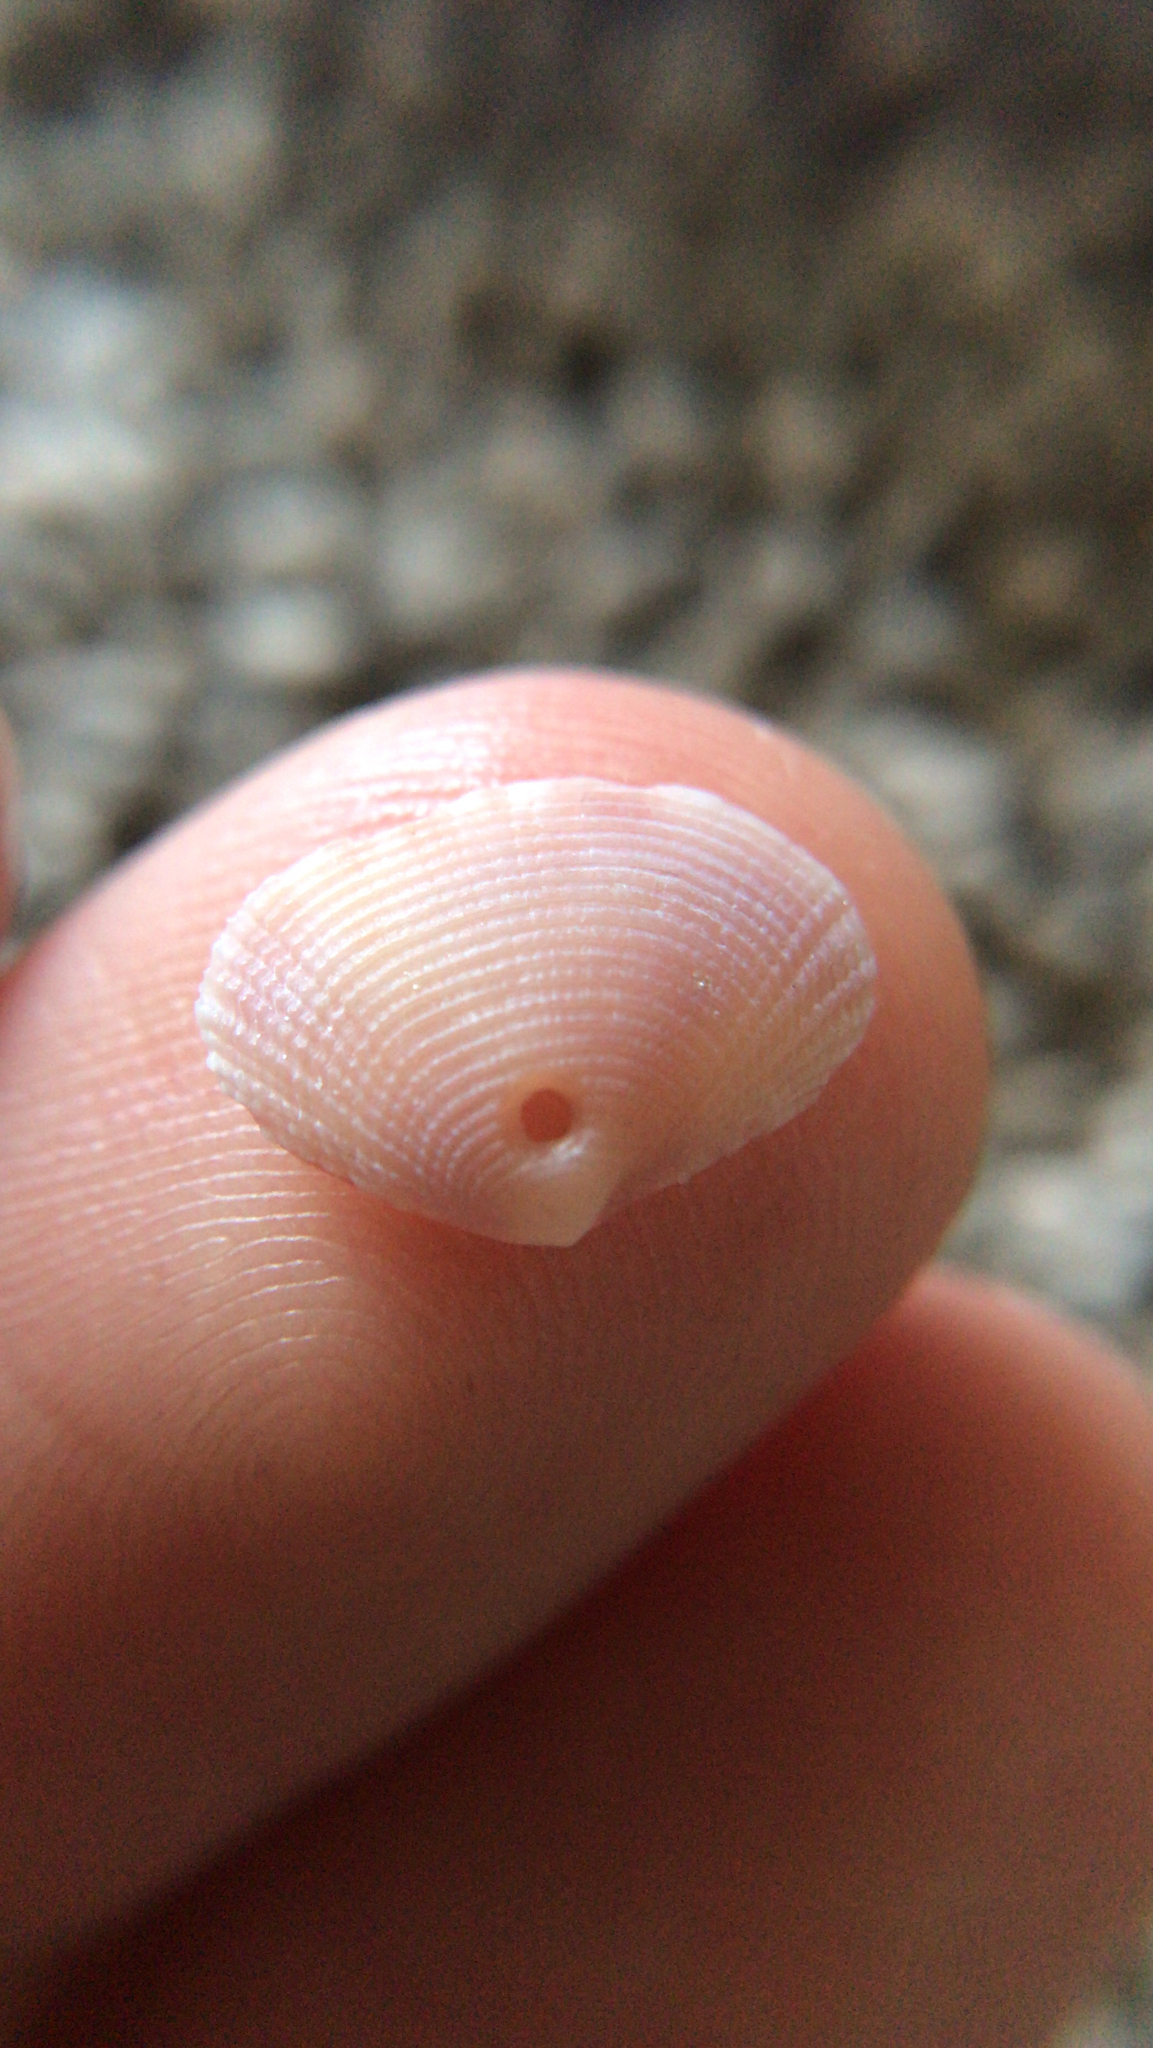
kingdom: Animalia
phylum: Mollusca
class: Bivalvia
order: Cardiida
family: Semelidae
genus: Semele
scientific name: Semele bellastriata
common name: Cancellate semele
